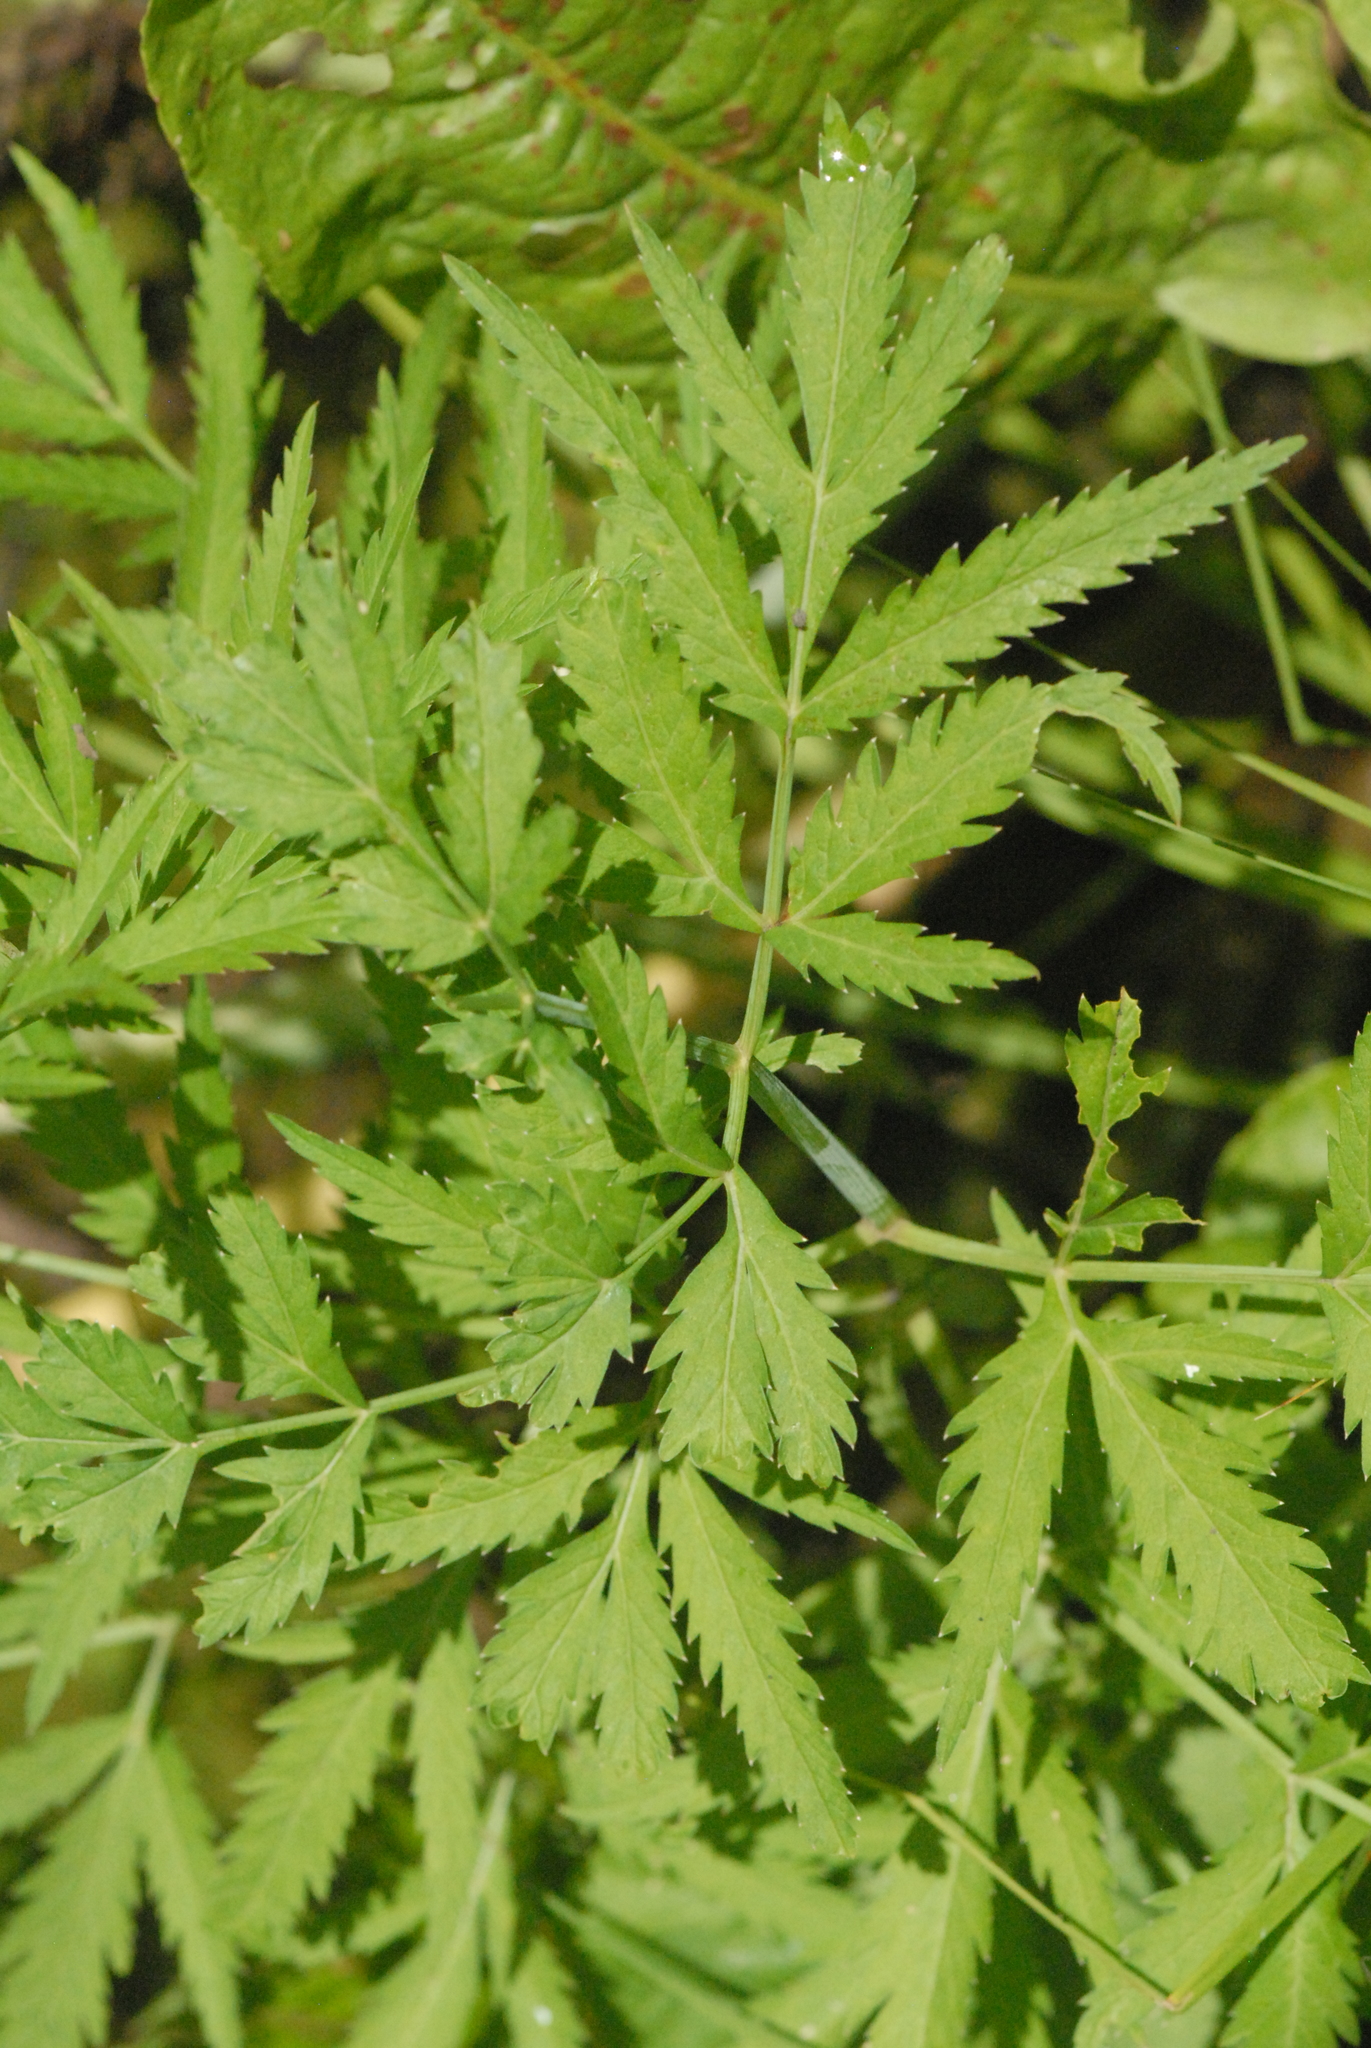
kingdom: Plantae
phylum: Tracheophyta
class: Magnoliopsida
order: Apiales
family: Apiaceae
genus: Cicuta
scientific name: Cicuta virosa
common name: Cowbane
